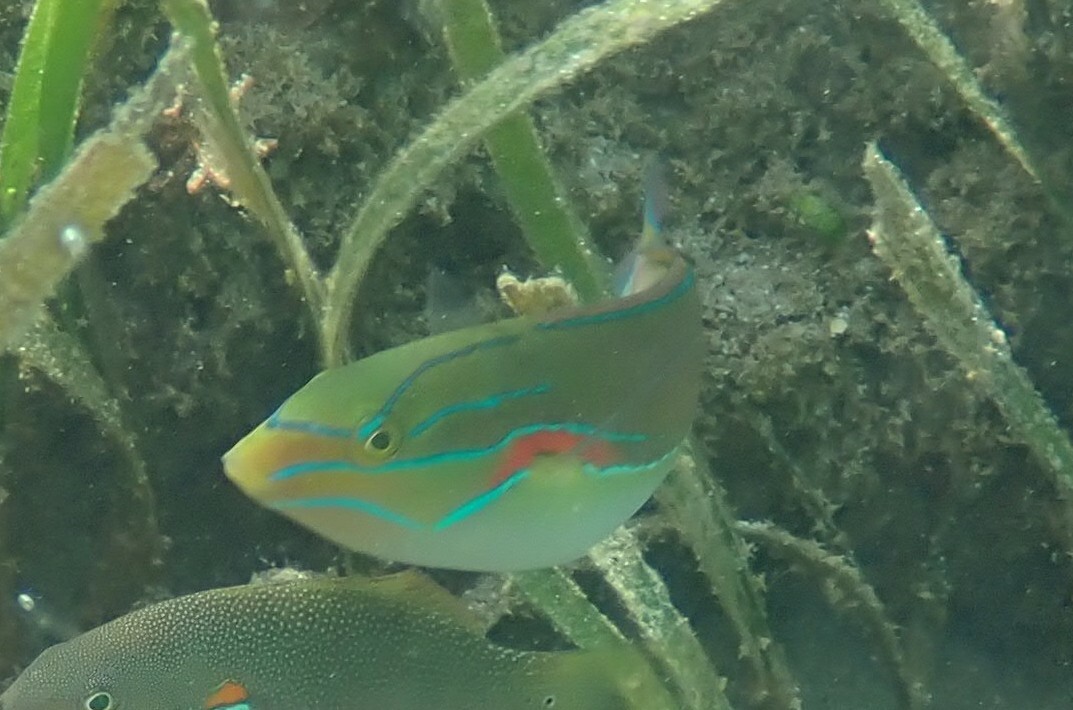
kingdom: Animalia
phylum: Chordata
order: Perciformes
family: Labridae
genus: Stethojulis
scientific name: Stethojulis bandanensis
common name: Red shoulder wrasse
